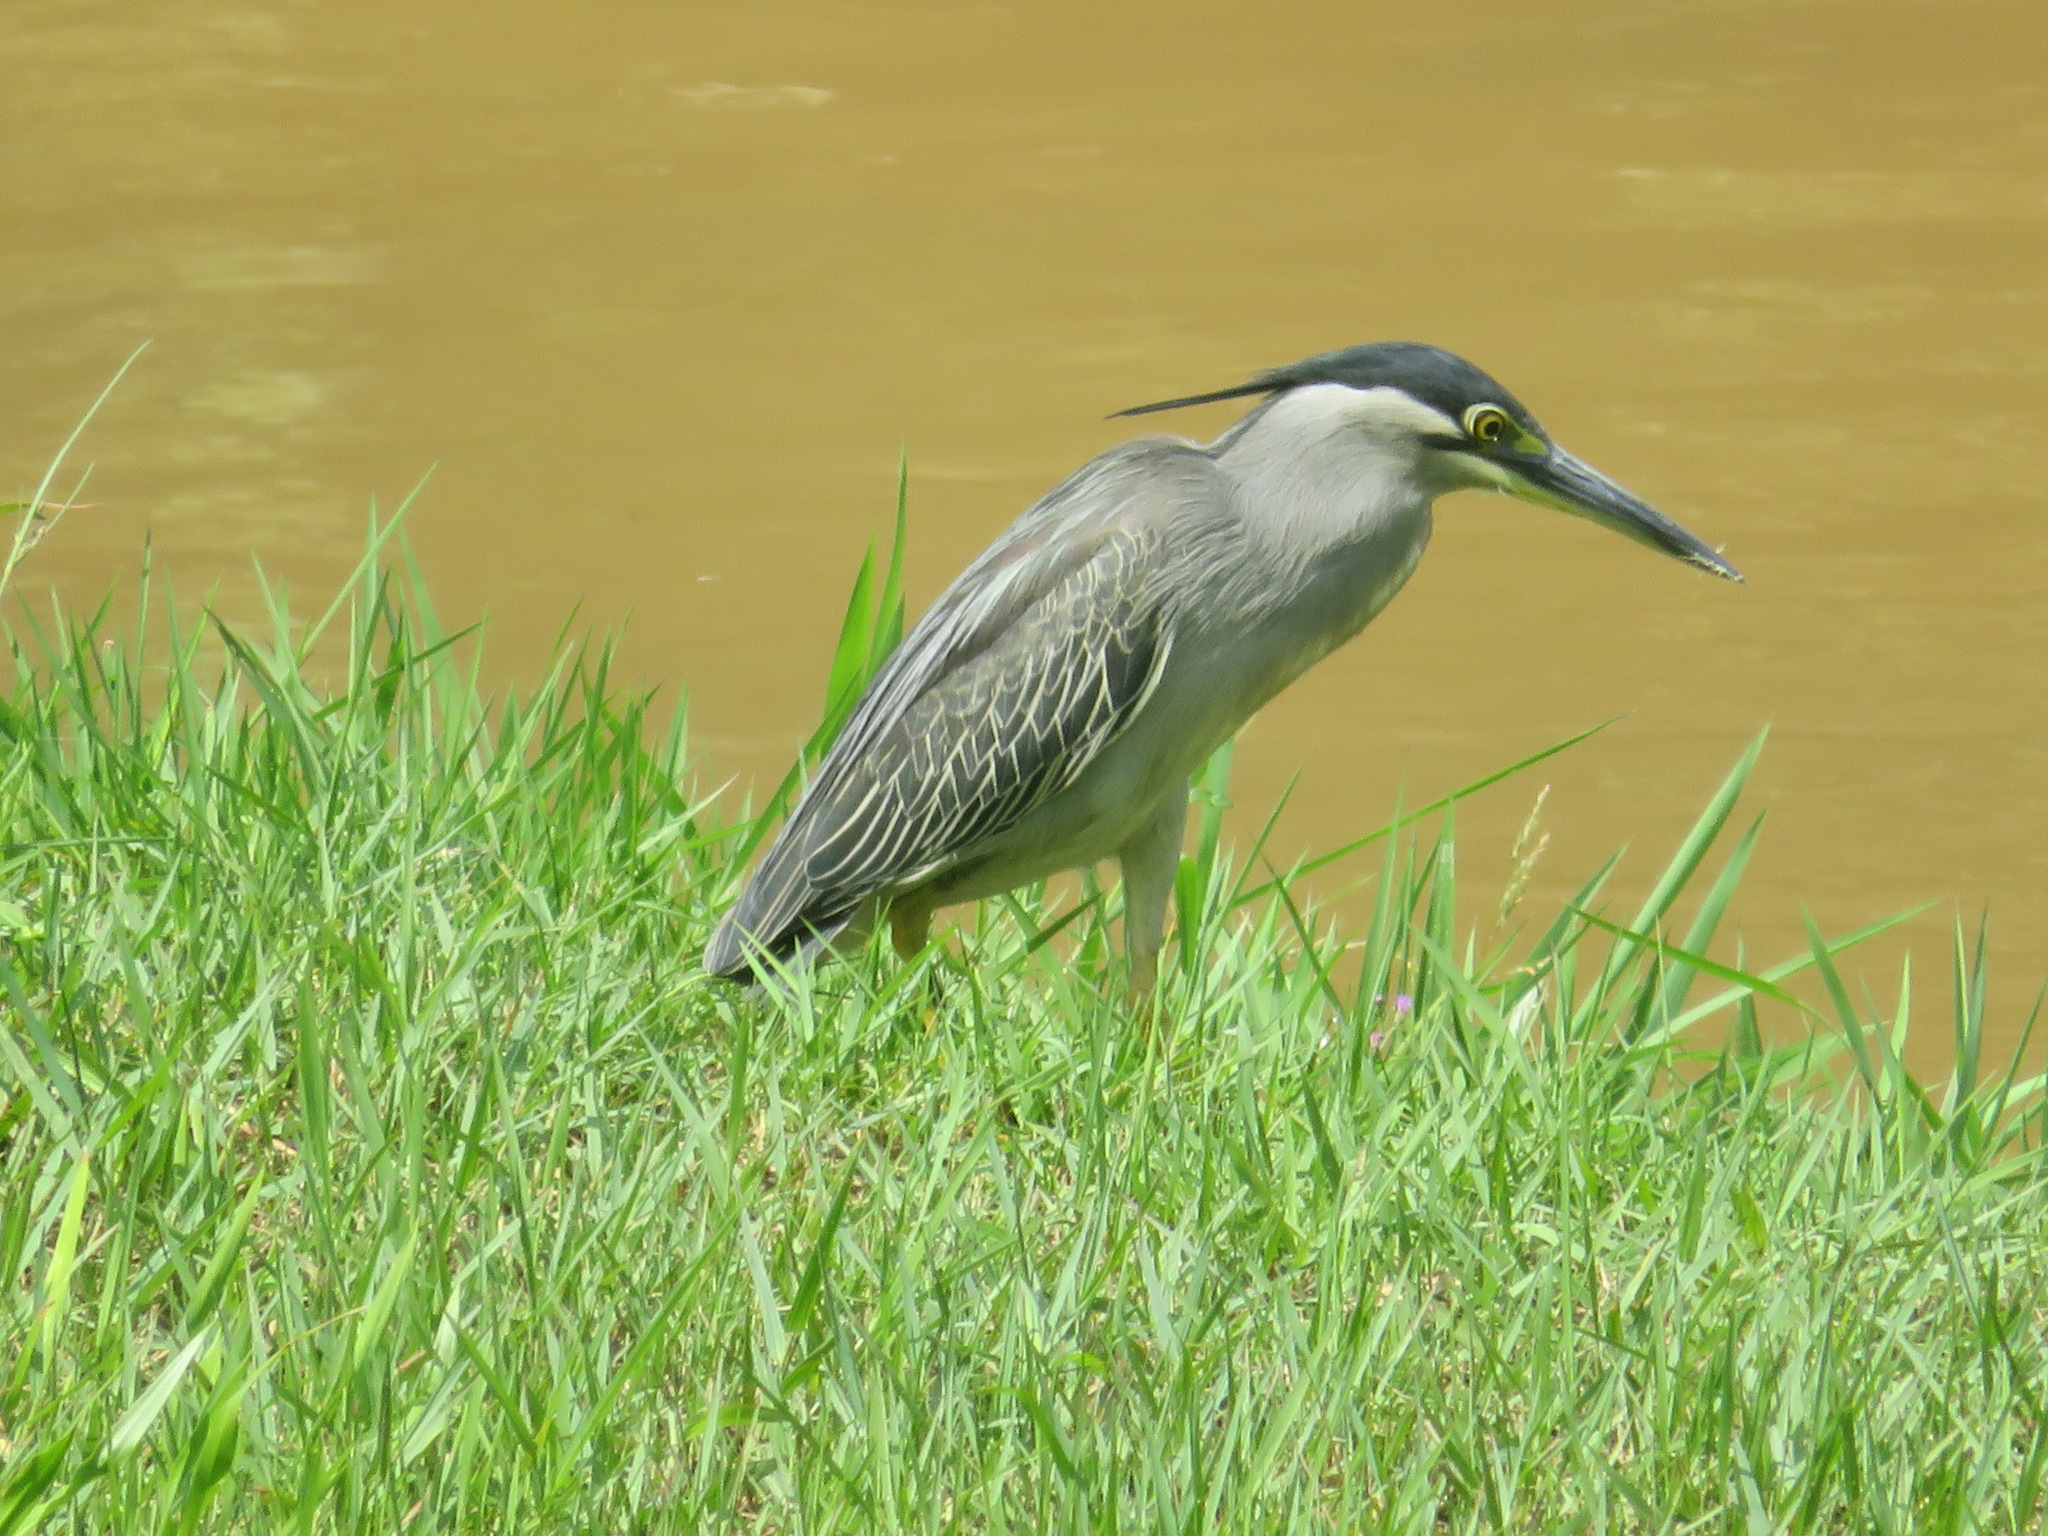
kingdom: Animalia
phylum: Chordata
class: Aves
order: Pelecaniformes
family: Ardeidae
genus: Butorides
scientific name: Butorides striata
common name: Striated heron
